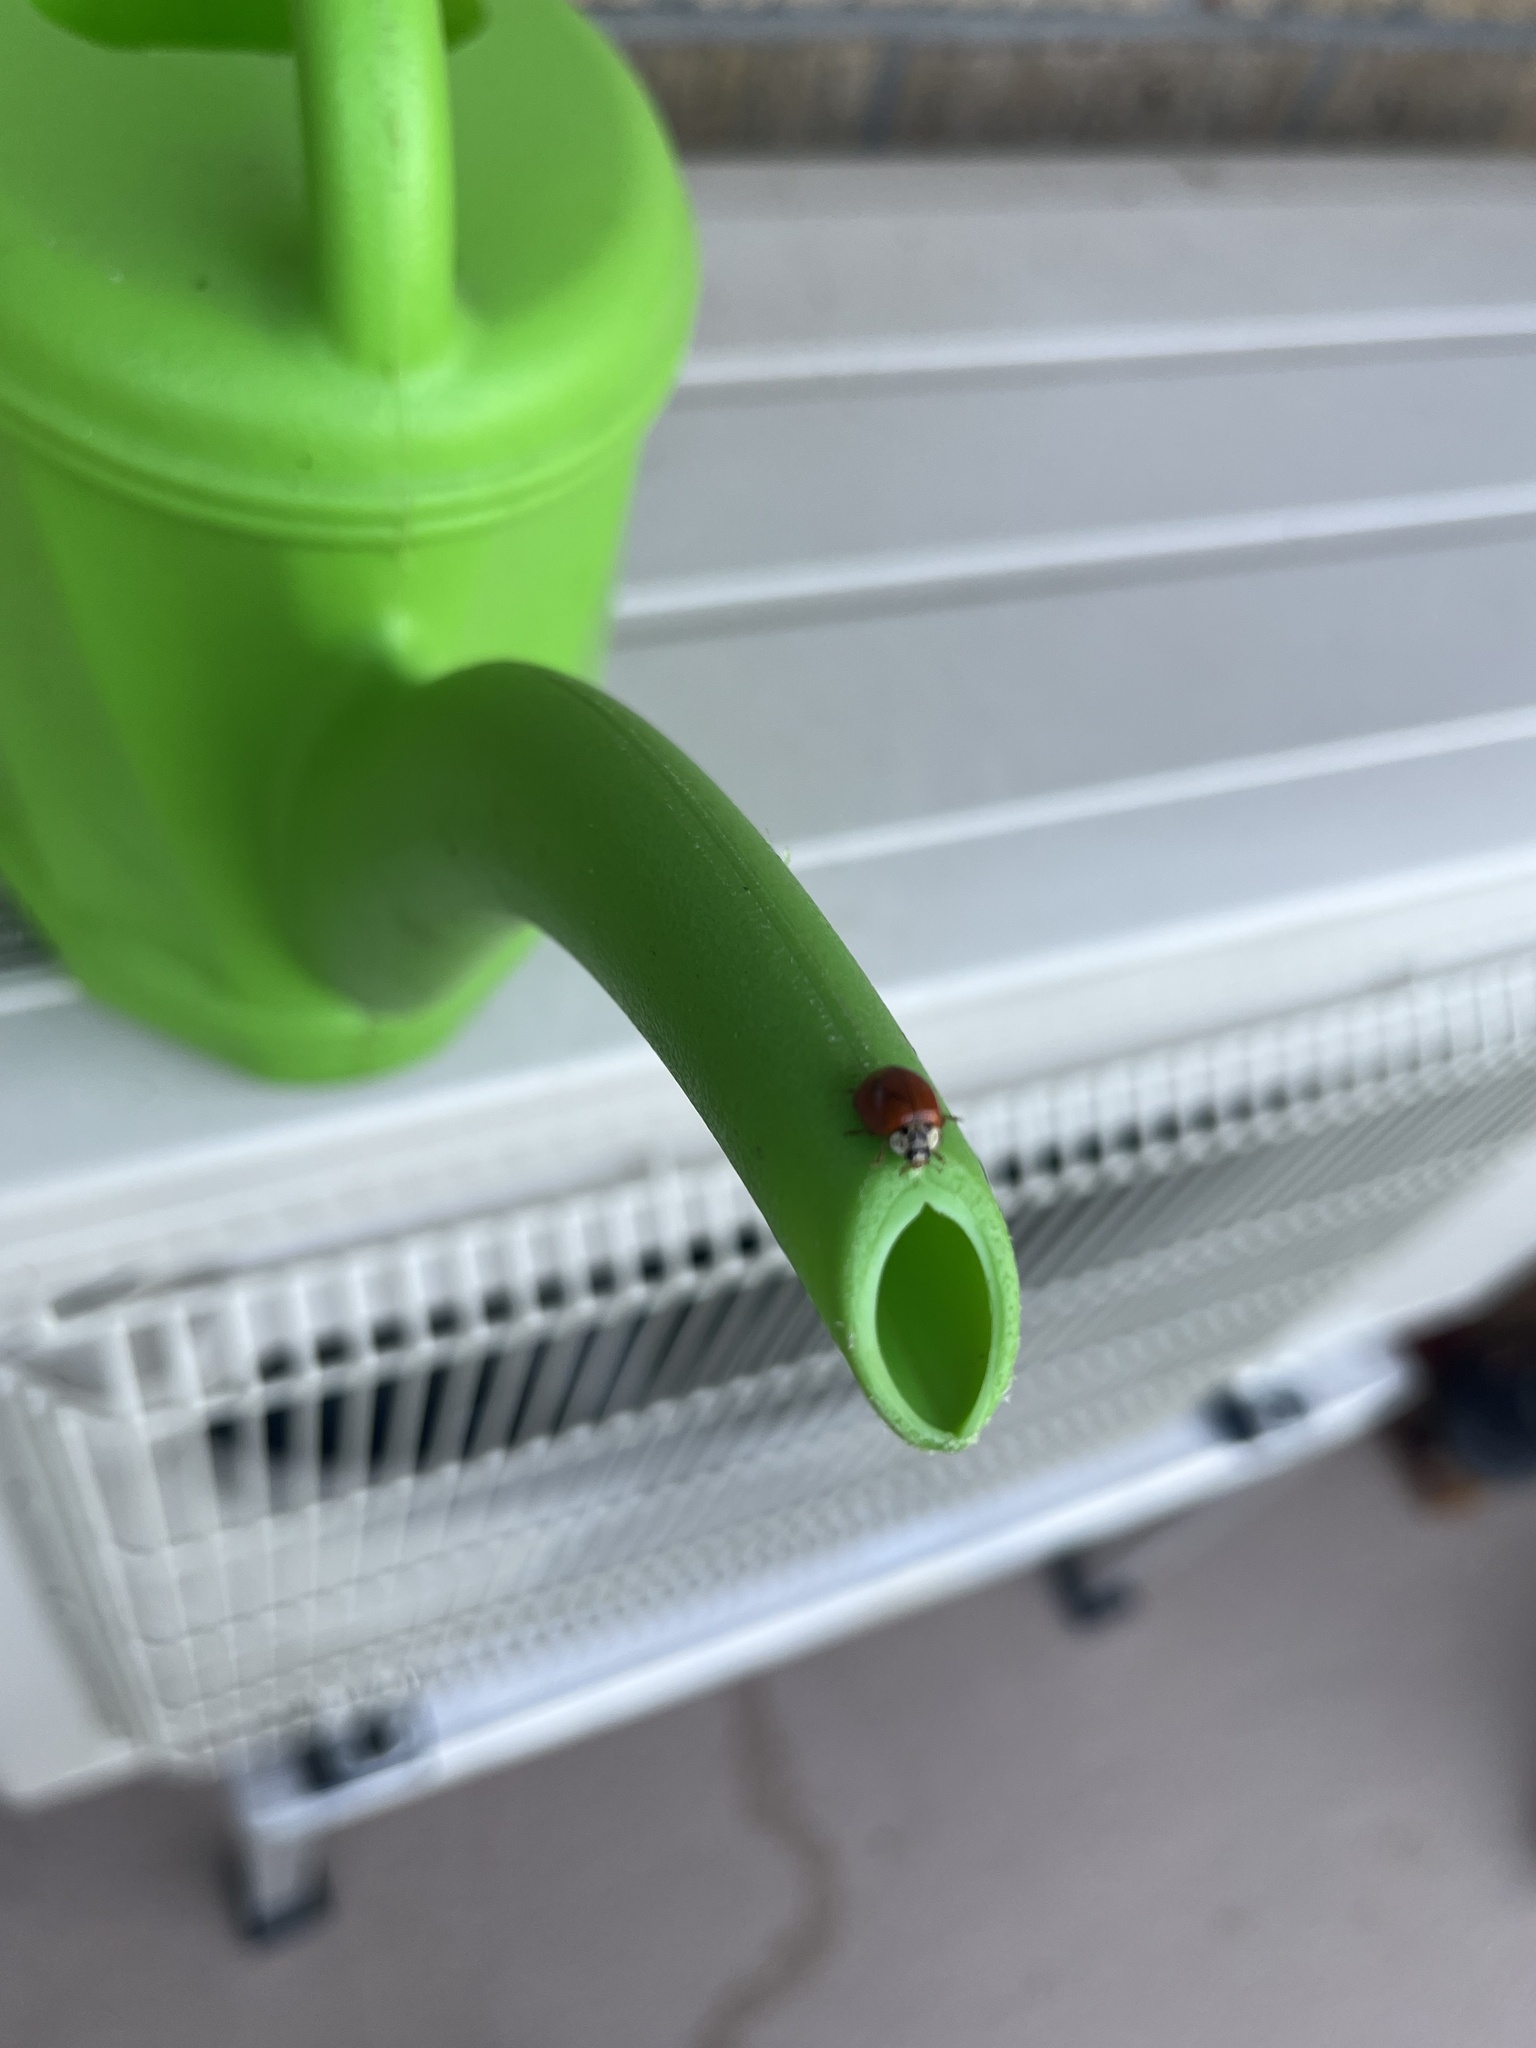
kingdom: Animalia
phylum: Arthropoda
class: Insecta
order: Coleoptera
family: Coccinellidae
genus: Harmonia
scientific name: Harmonia axyridis
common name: Harlequin ladybird
